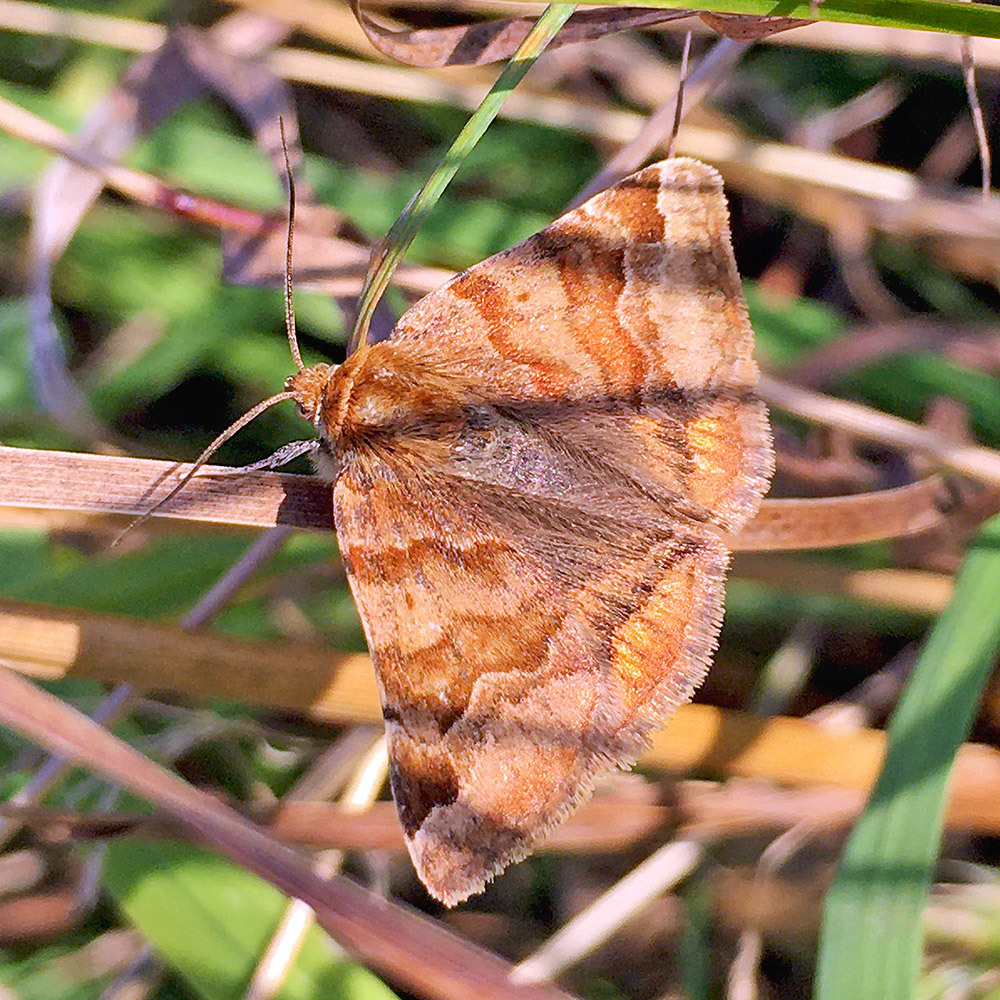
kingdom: Animalia
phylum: Arthropoda
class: Insecta
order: Lepidoptera
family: Erebidae
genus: Euclidia
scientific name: Euclidia glyphica
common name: Burnet companion
